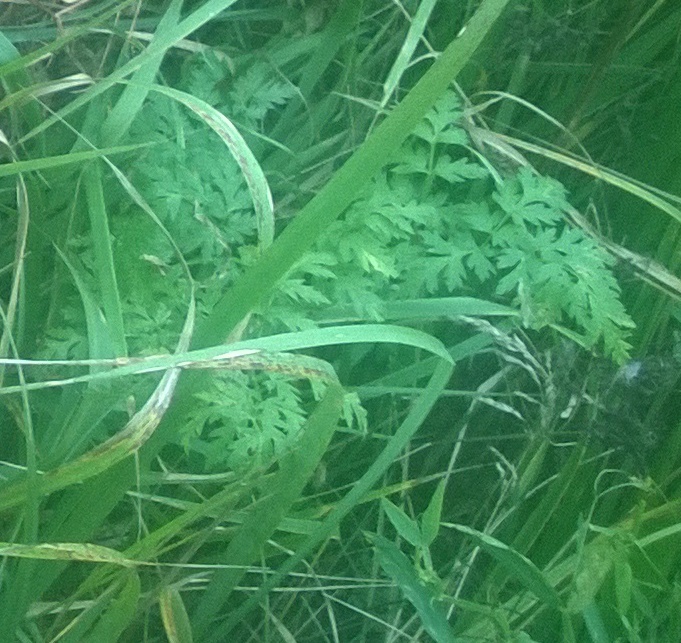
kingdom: Plantae
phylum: Tracheophyta
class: Magnoliopsida
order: Apiales
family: Apiaceae
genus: Anthriscus
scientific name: Anthriscus sylvestris
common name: Cow parsley
